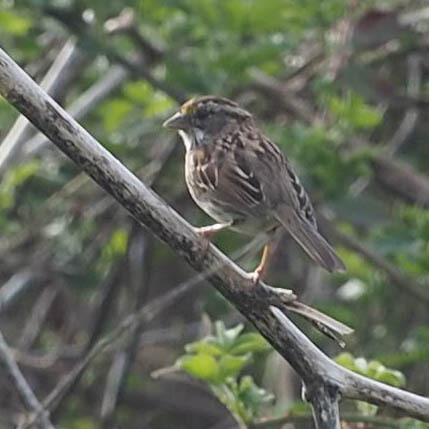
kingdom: Animalia
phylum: Chordata
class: Aves
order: Passeriformes
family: Passerellidae
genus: Zonotrichia
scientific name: Zonotrichia albicollis
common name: White-throated sparrow
